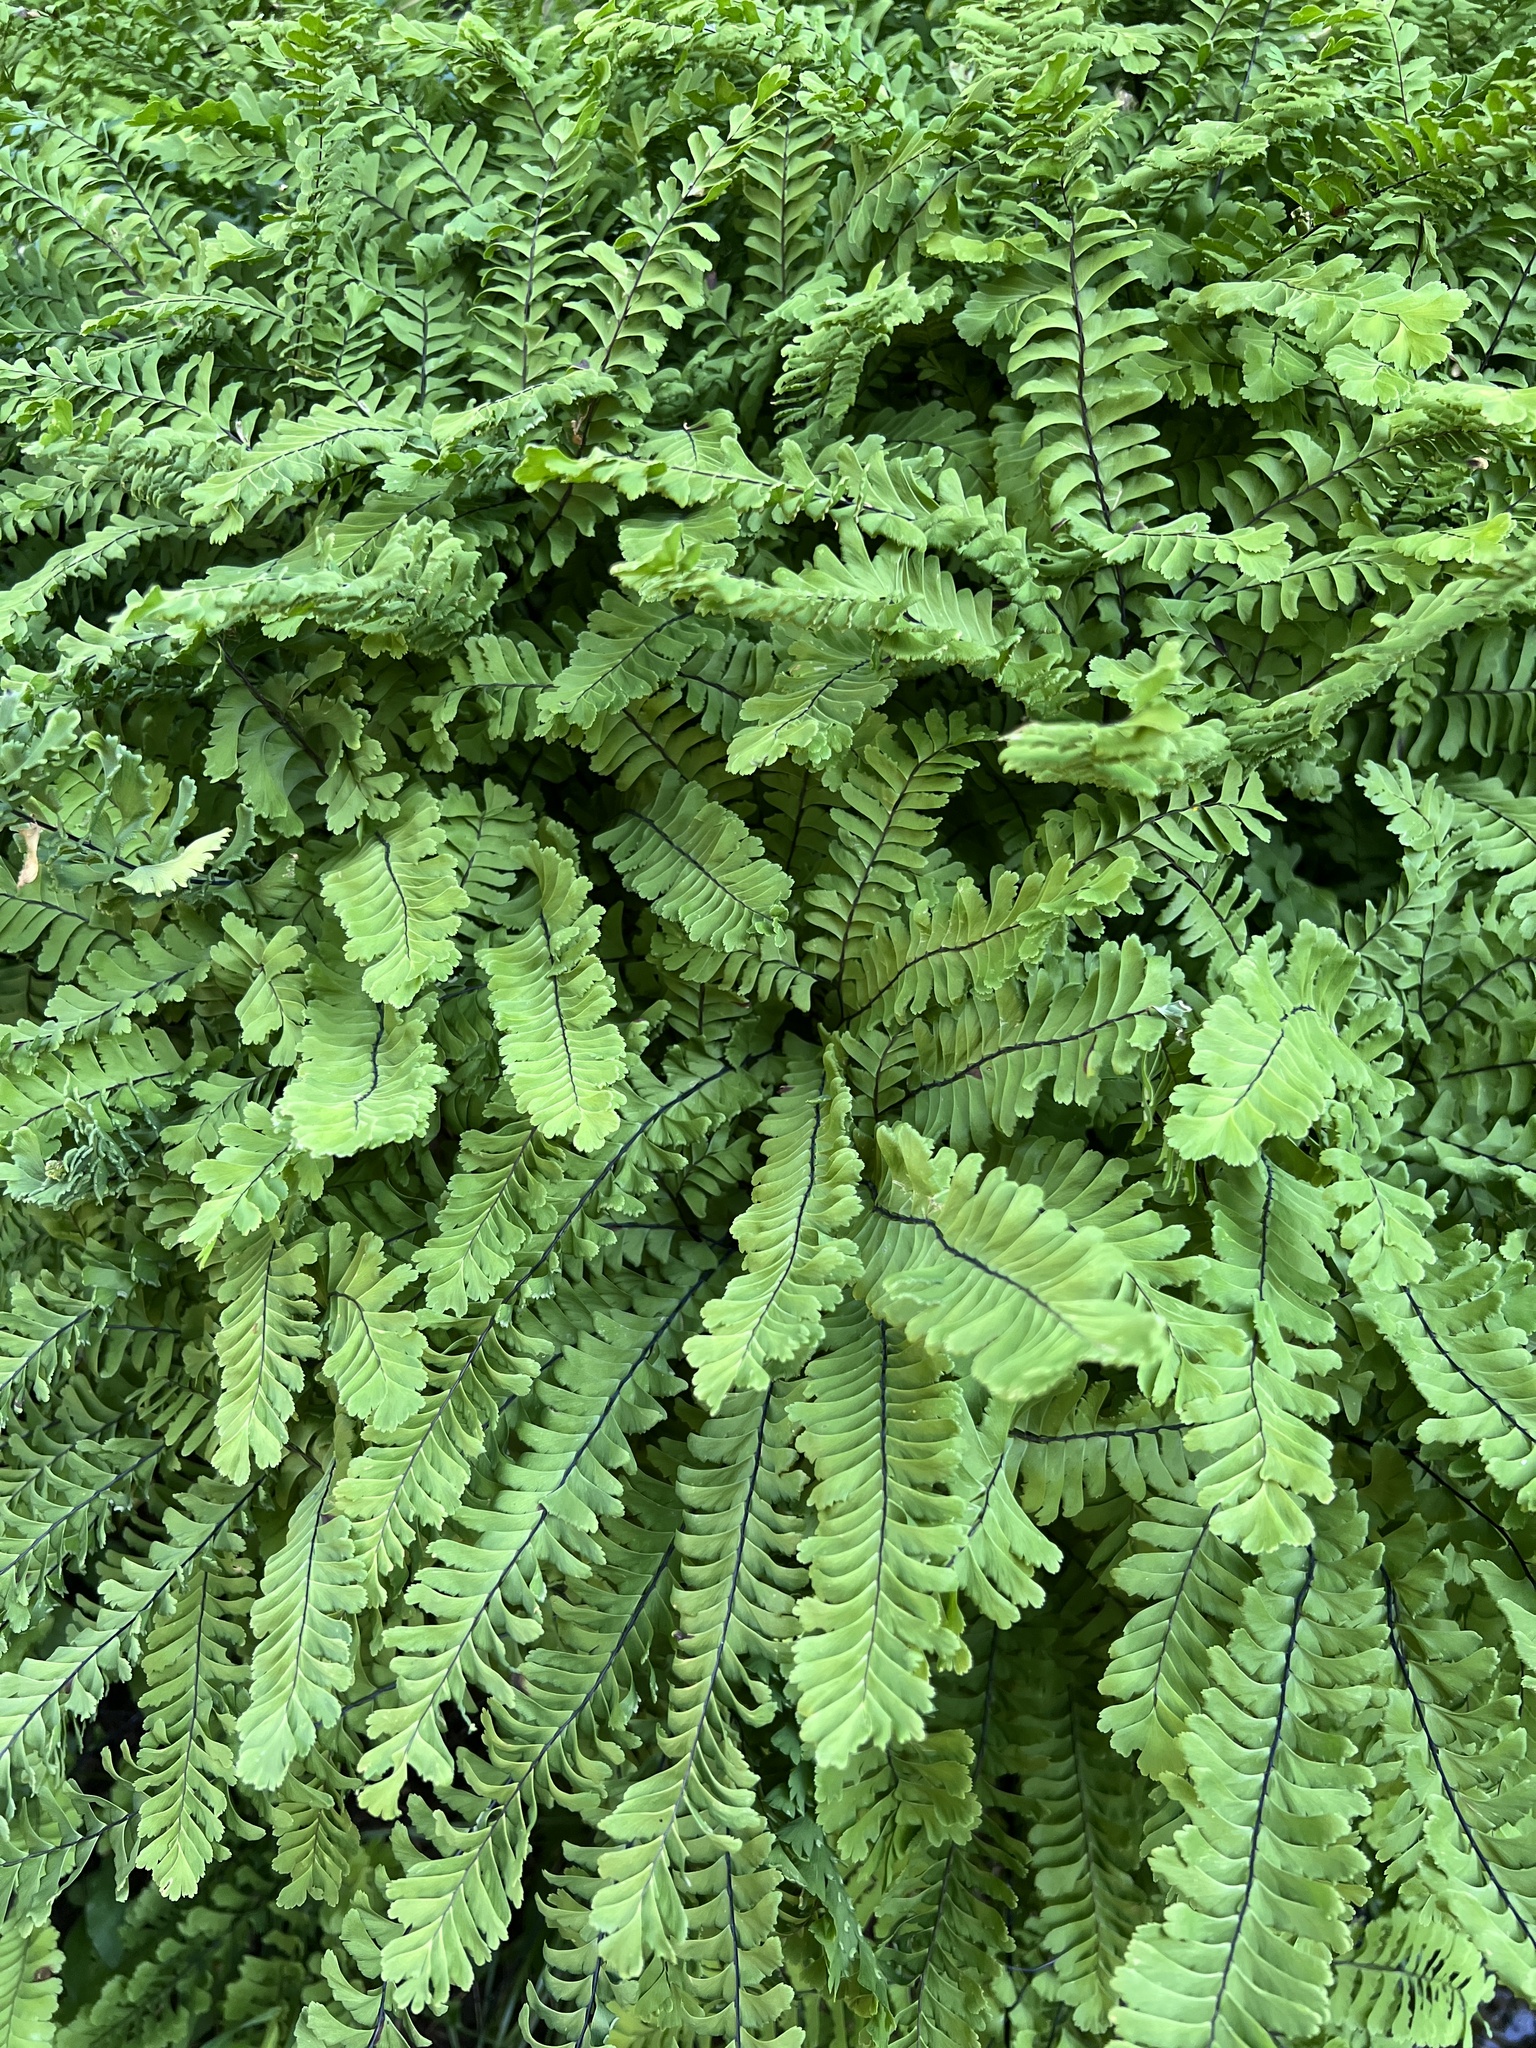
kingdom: Plantae
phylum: Tracheophyta
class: Polypodiopsida
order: Polypodiales
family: Pteridaceae
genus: Adiantum
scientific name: Adiantum aleuticum
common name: Aleutian maidenhair fern
